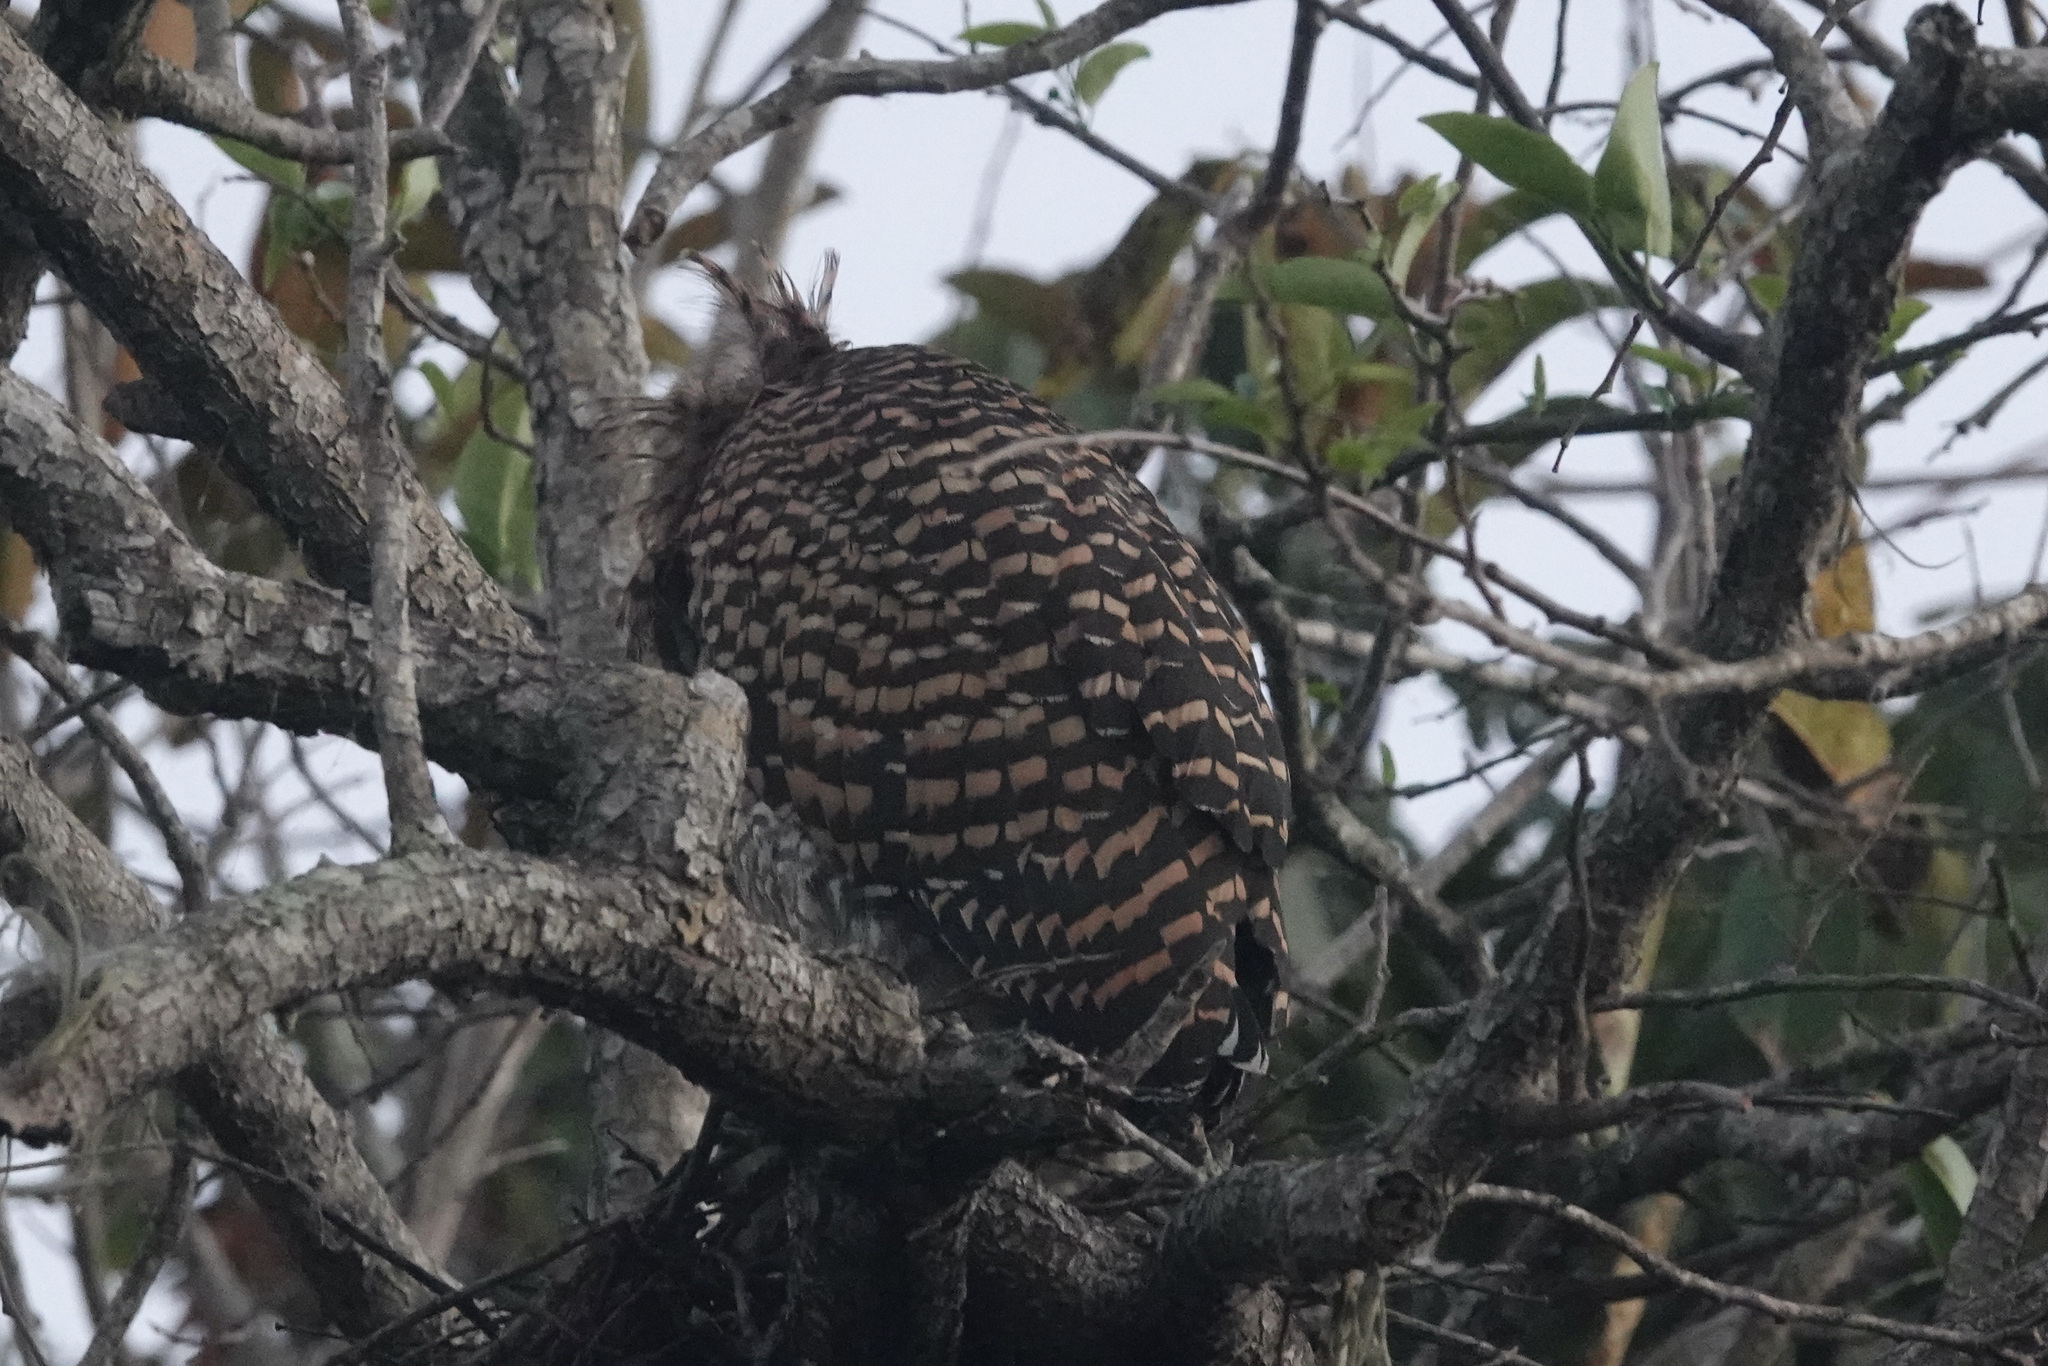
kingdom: Animalia
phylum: Chordata
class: Aves
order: Pelecaniformes
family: Ardeidae
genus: Tigrisoma
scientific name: Tigrisoma mexicanum
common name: Bare-throated tiger-heron
